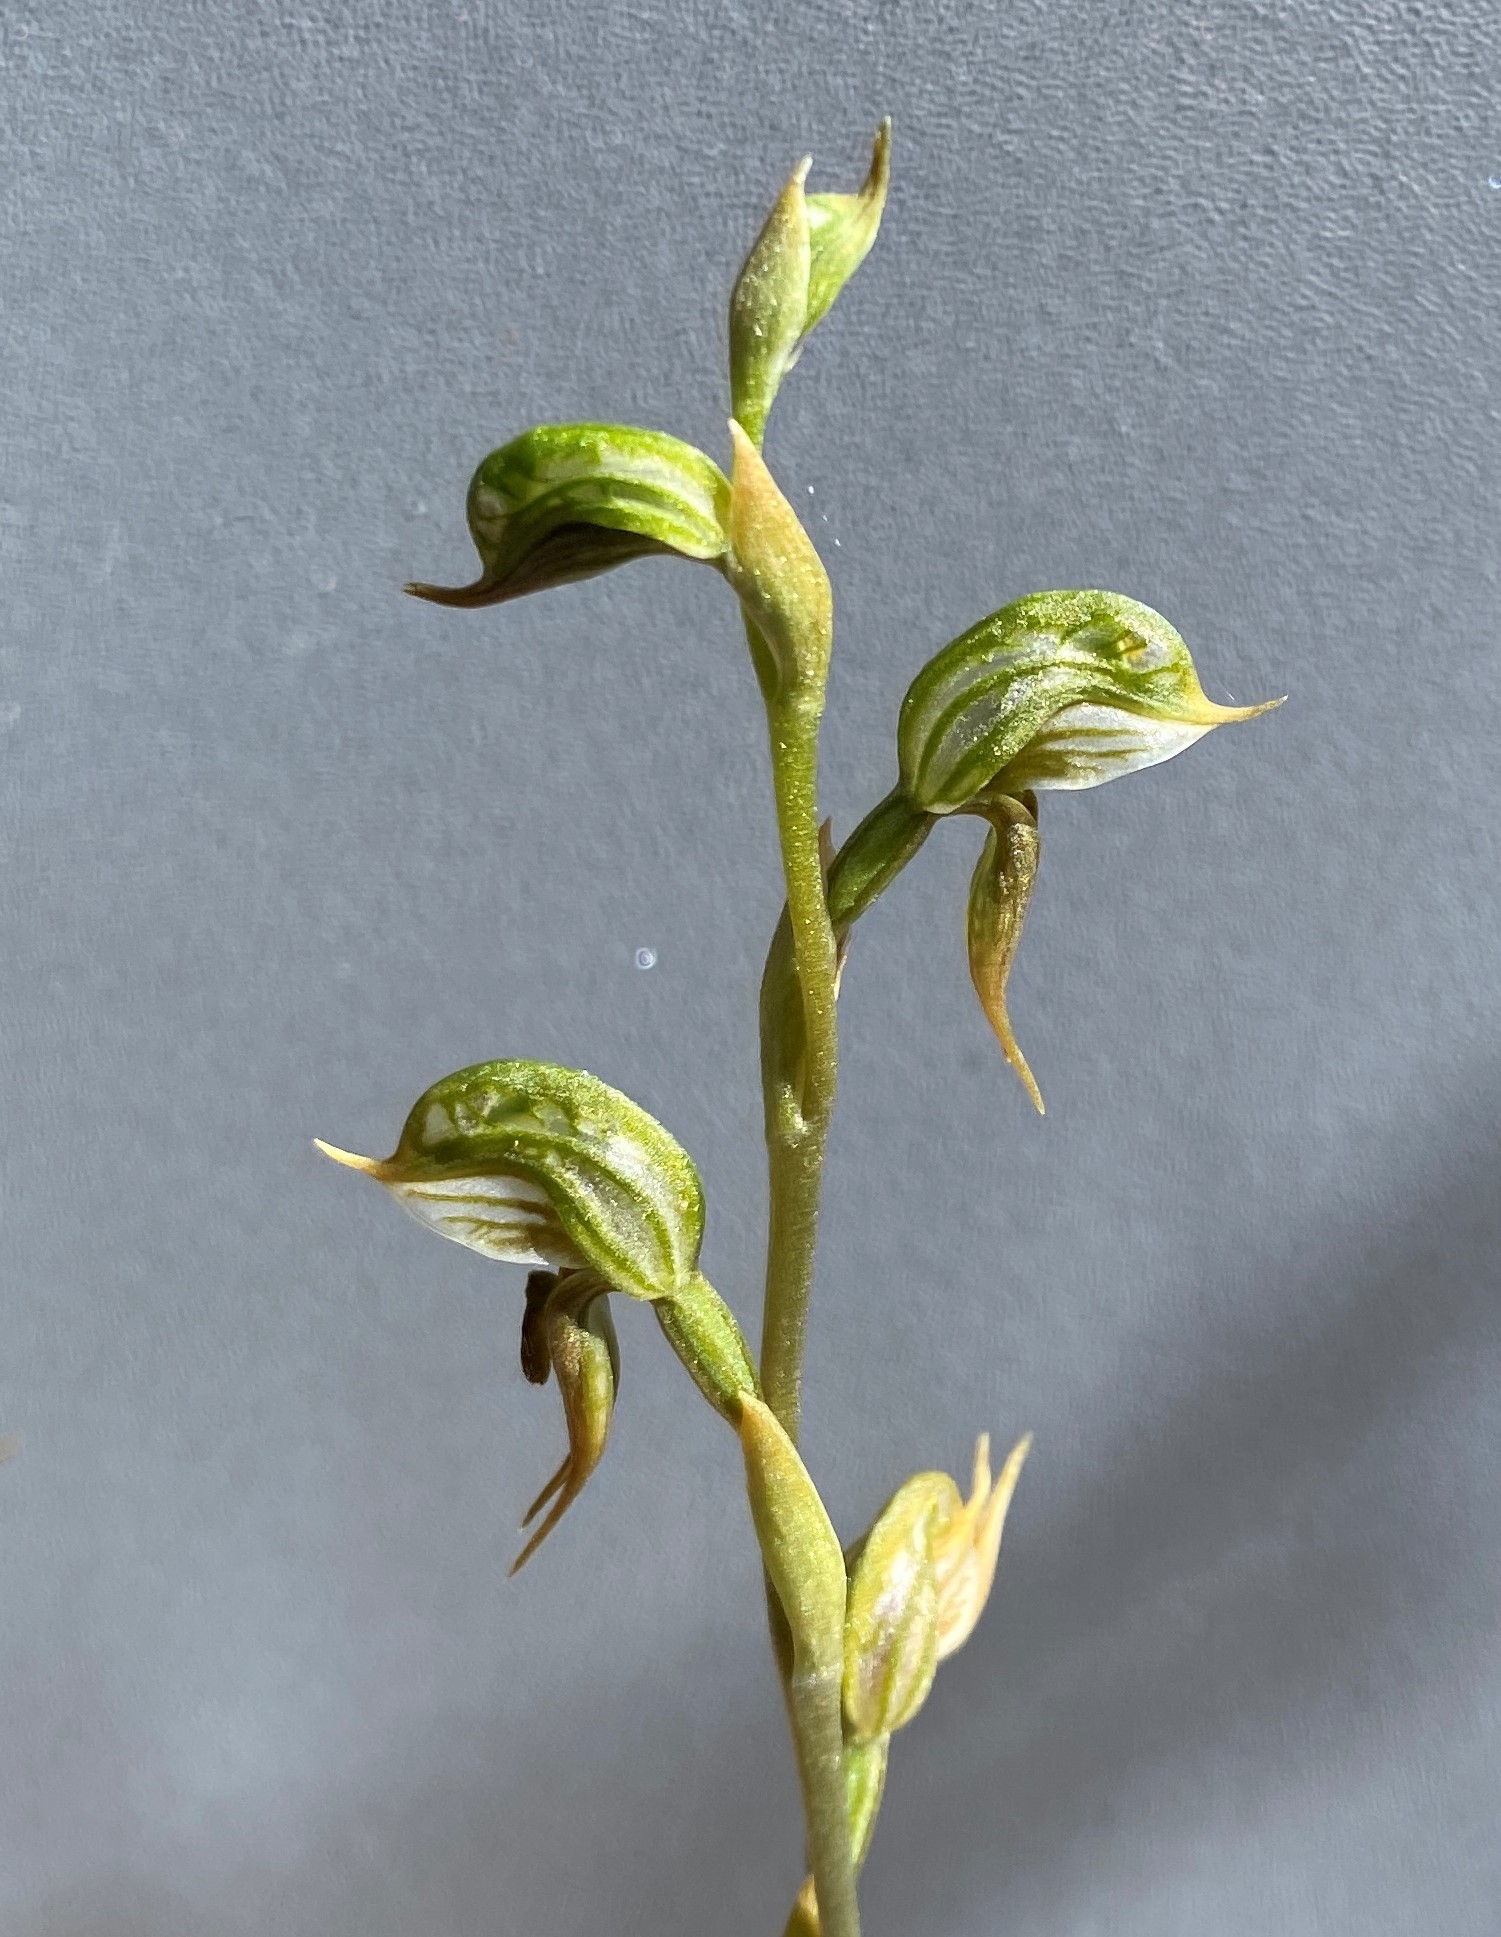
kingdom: Plantae
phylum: Tracheophyta
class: Liliopsida
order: Asparagales
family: Orchidaceae
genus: Pterostylis
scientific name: Pterostylis pusilla
